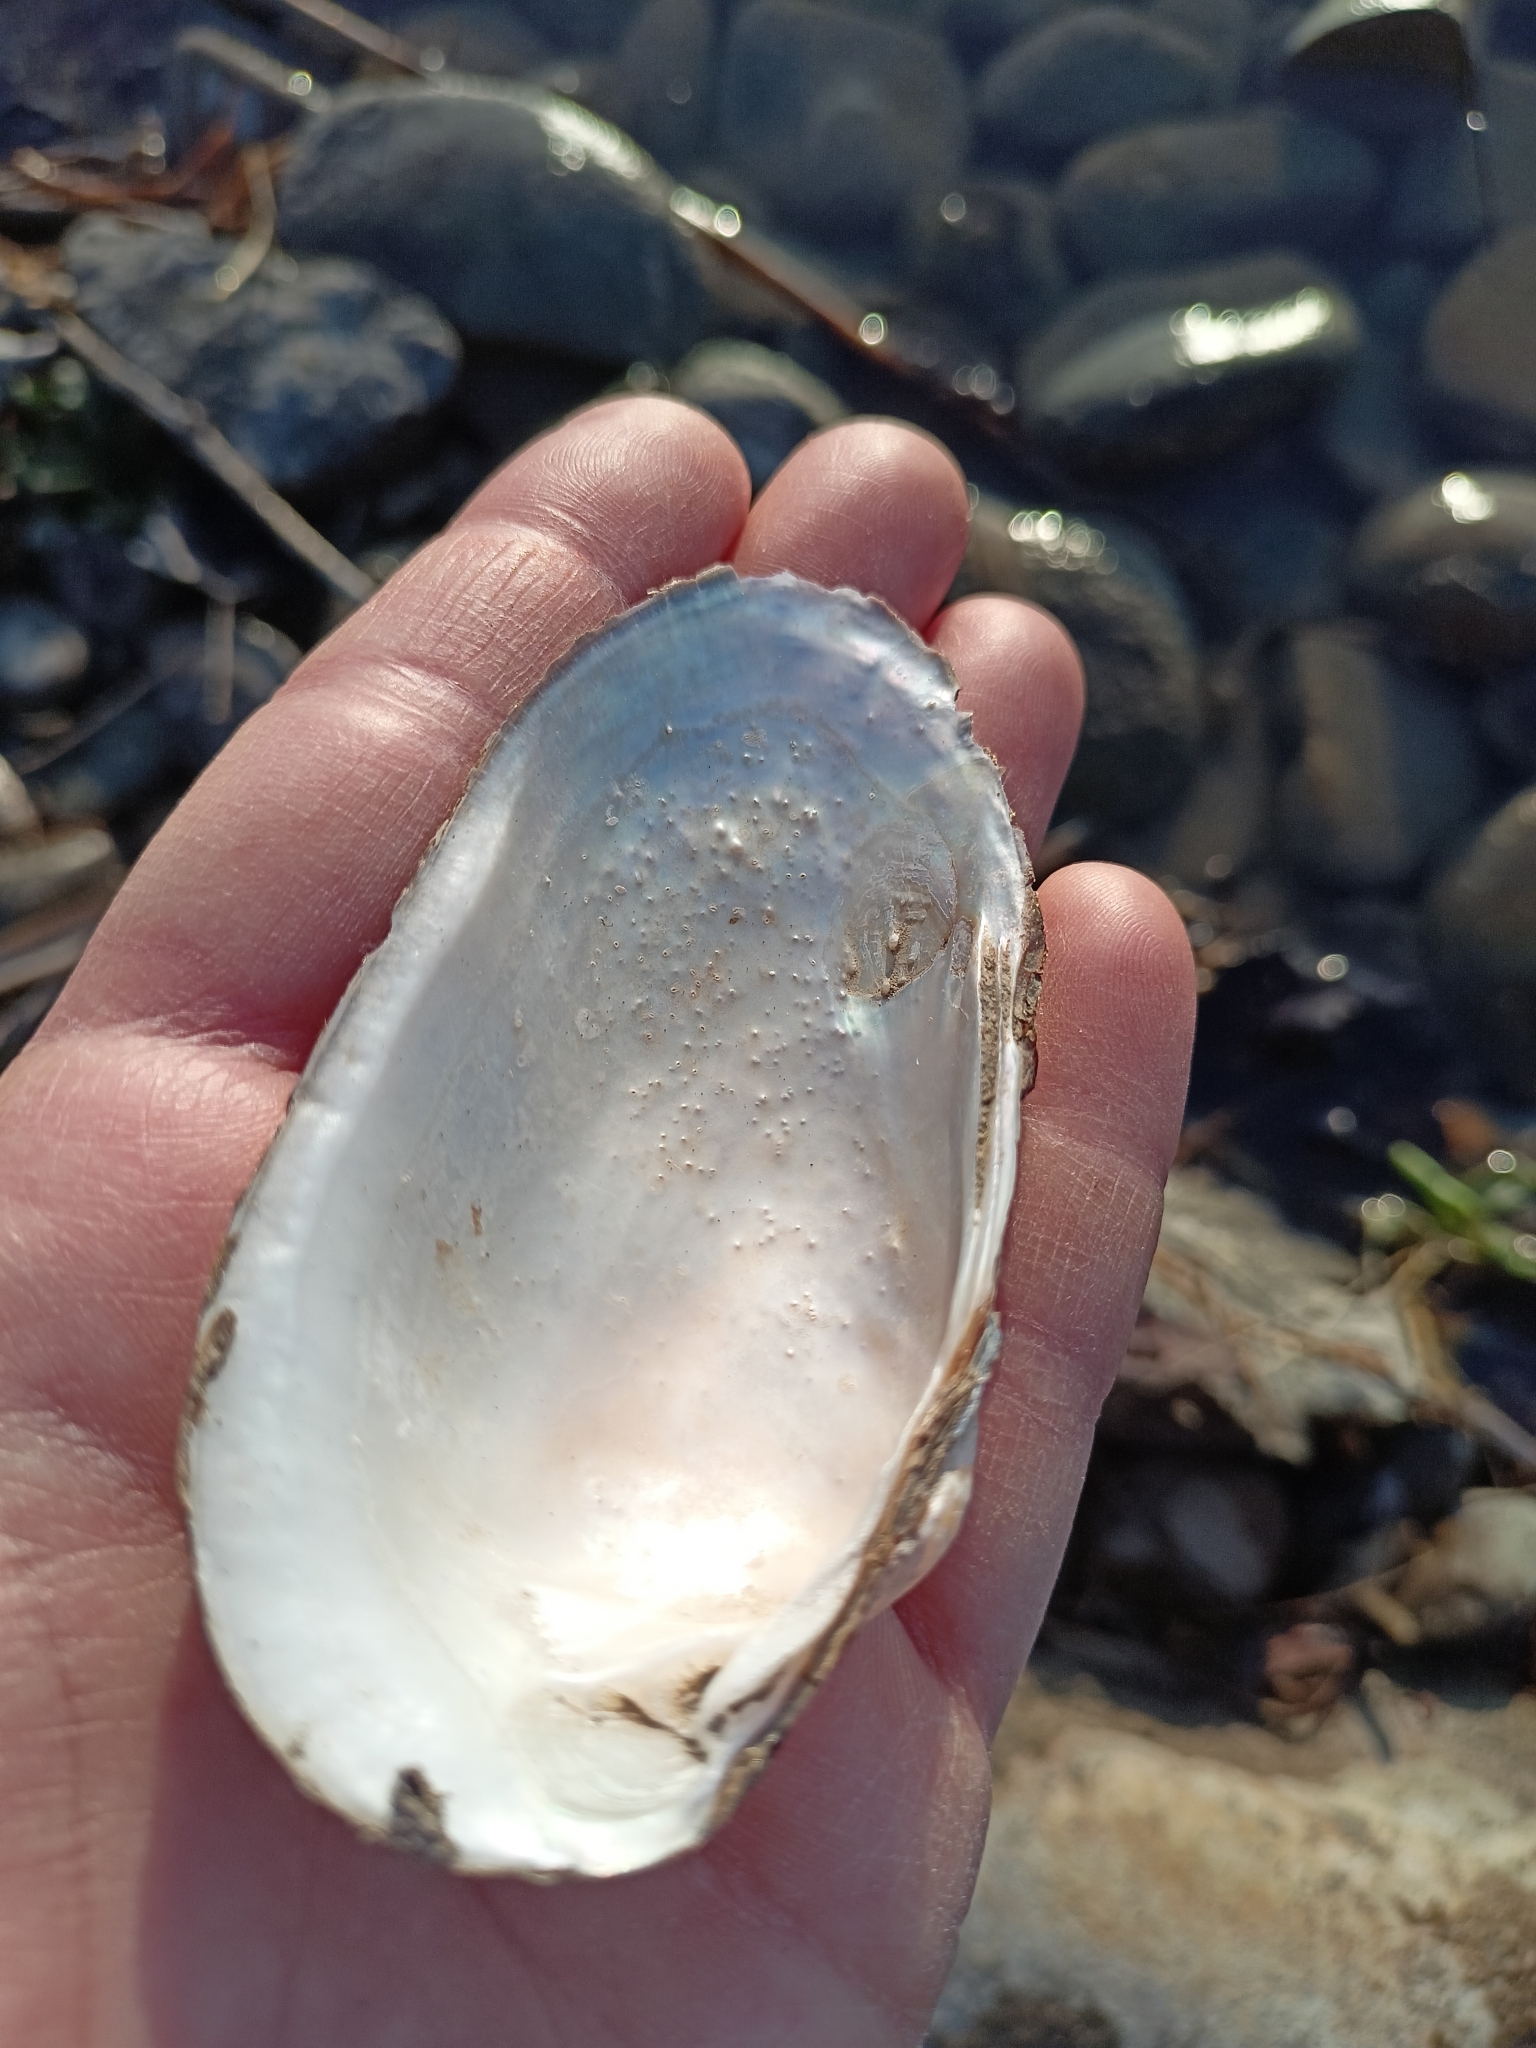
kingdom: Animalia
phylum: Mollusca
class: Bivalvia
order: Unionida
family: Unionidae
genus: Unio
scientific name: Unio elongatulus
